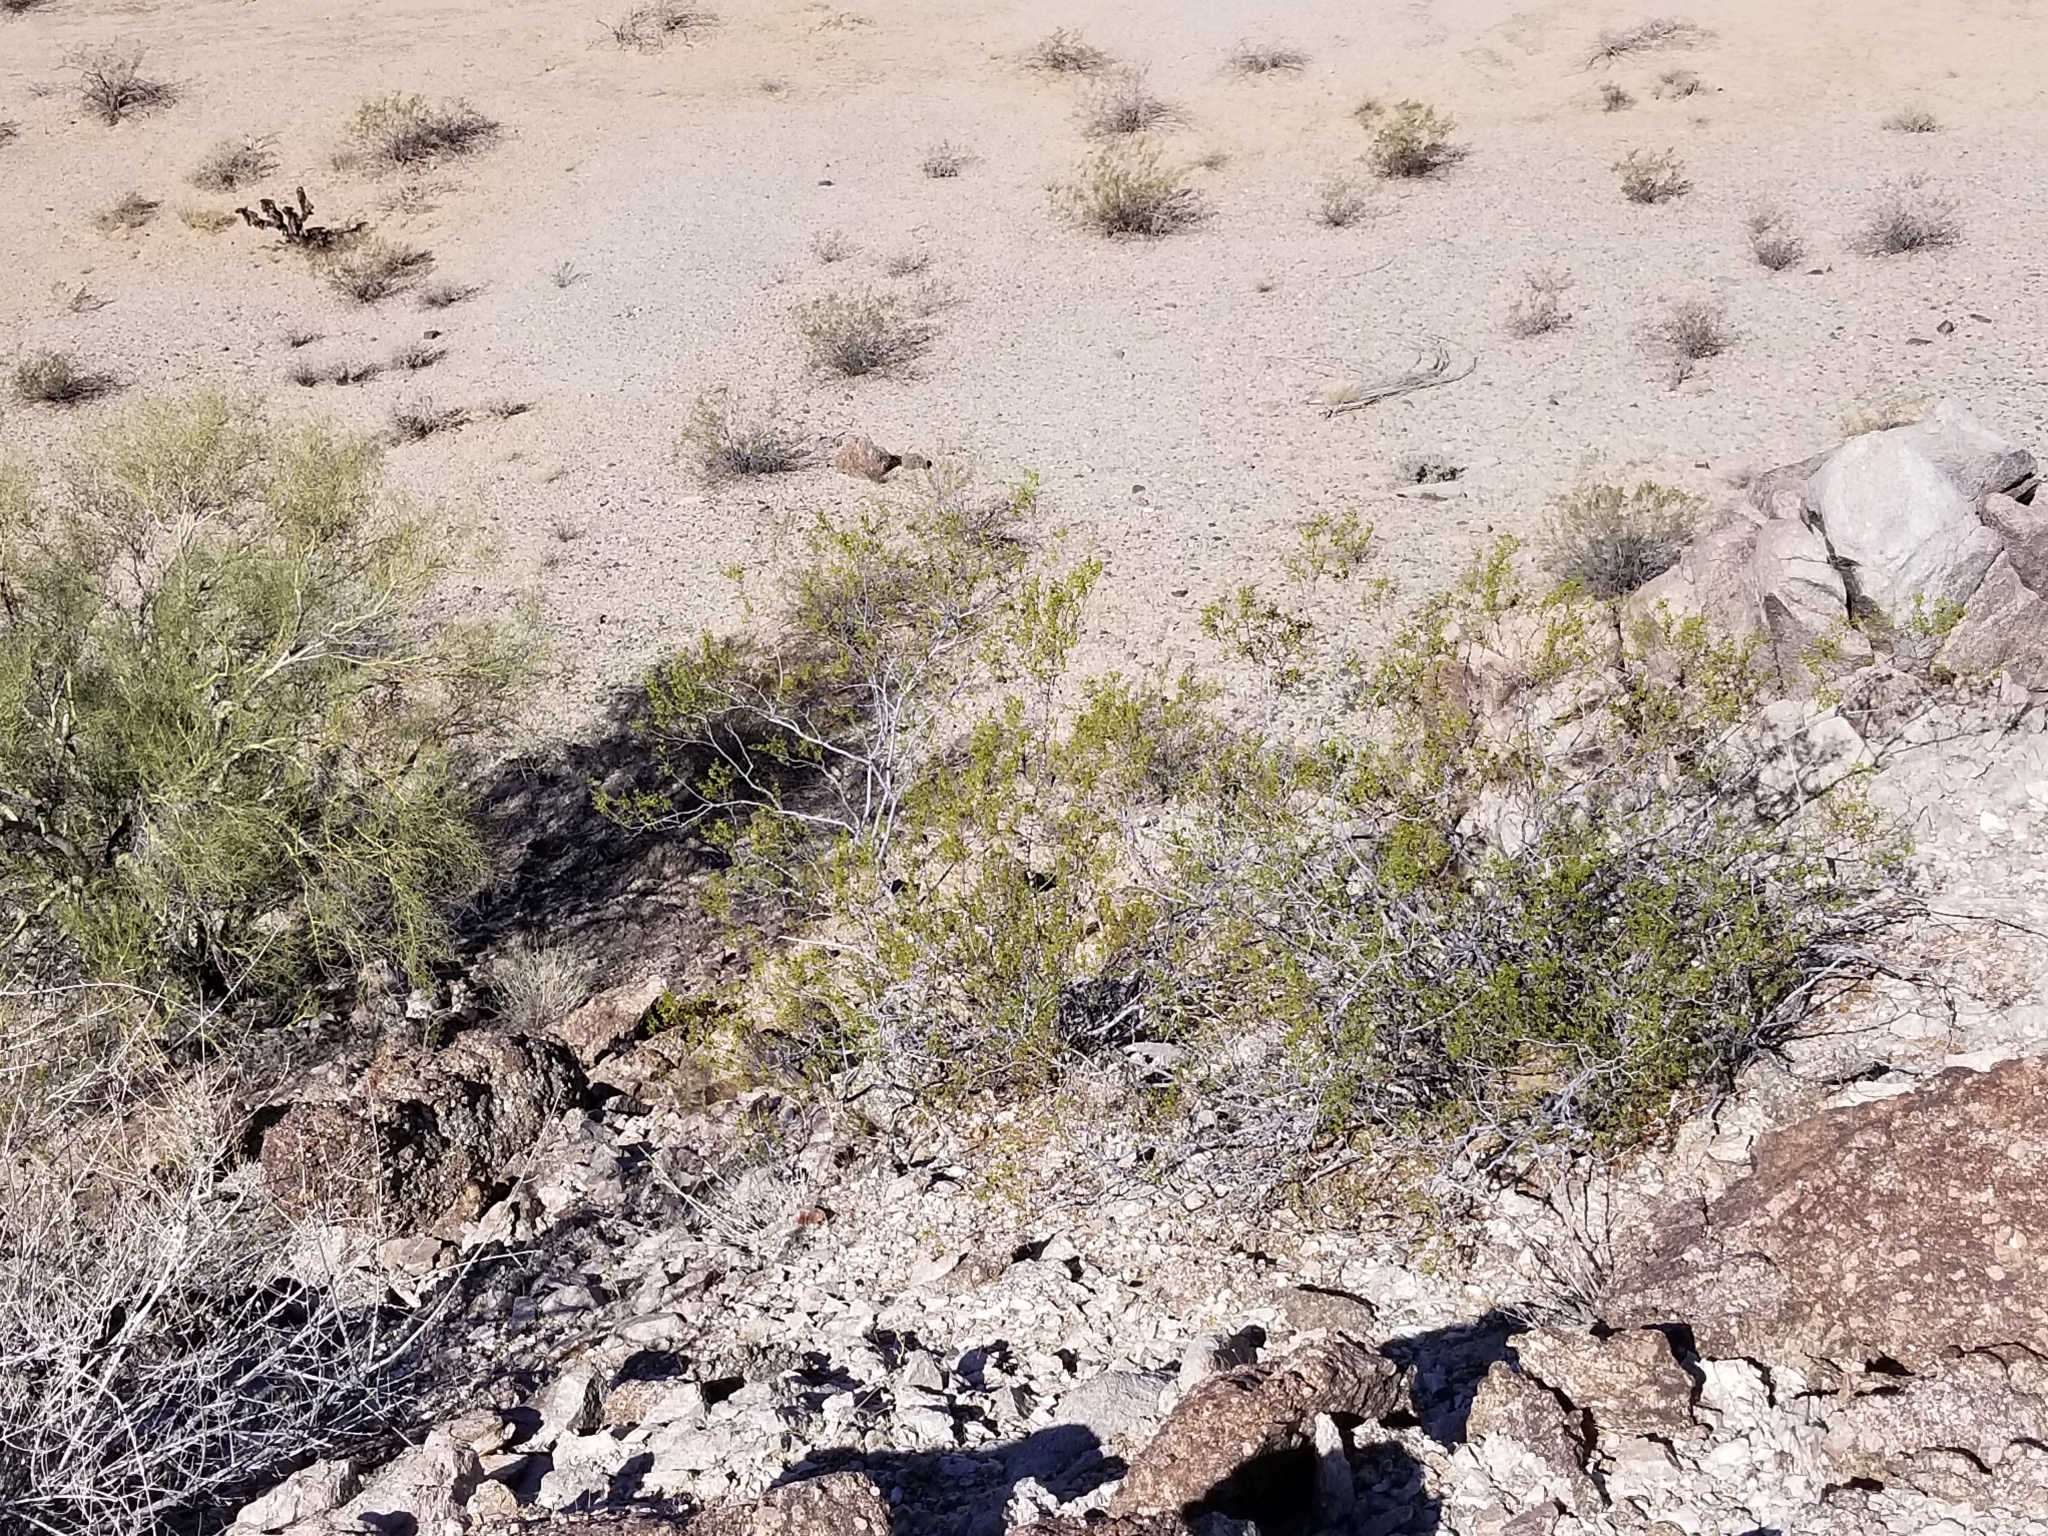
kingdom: Plantae
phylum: Tracheophyta
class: Magnoliopsida
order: Zygophyllales
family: Zygophyllaceae
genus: Larrea
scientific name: Larrea tridentata
